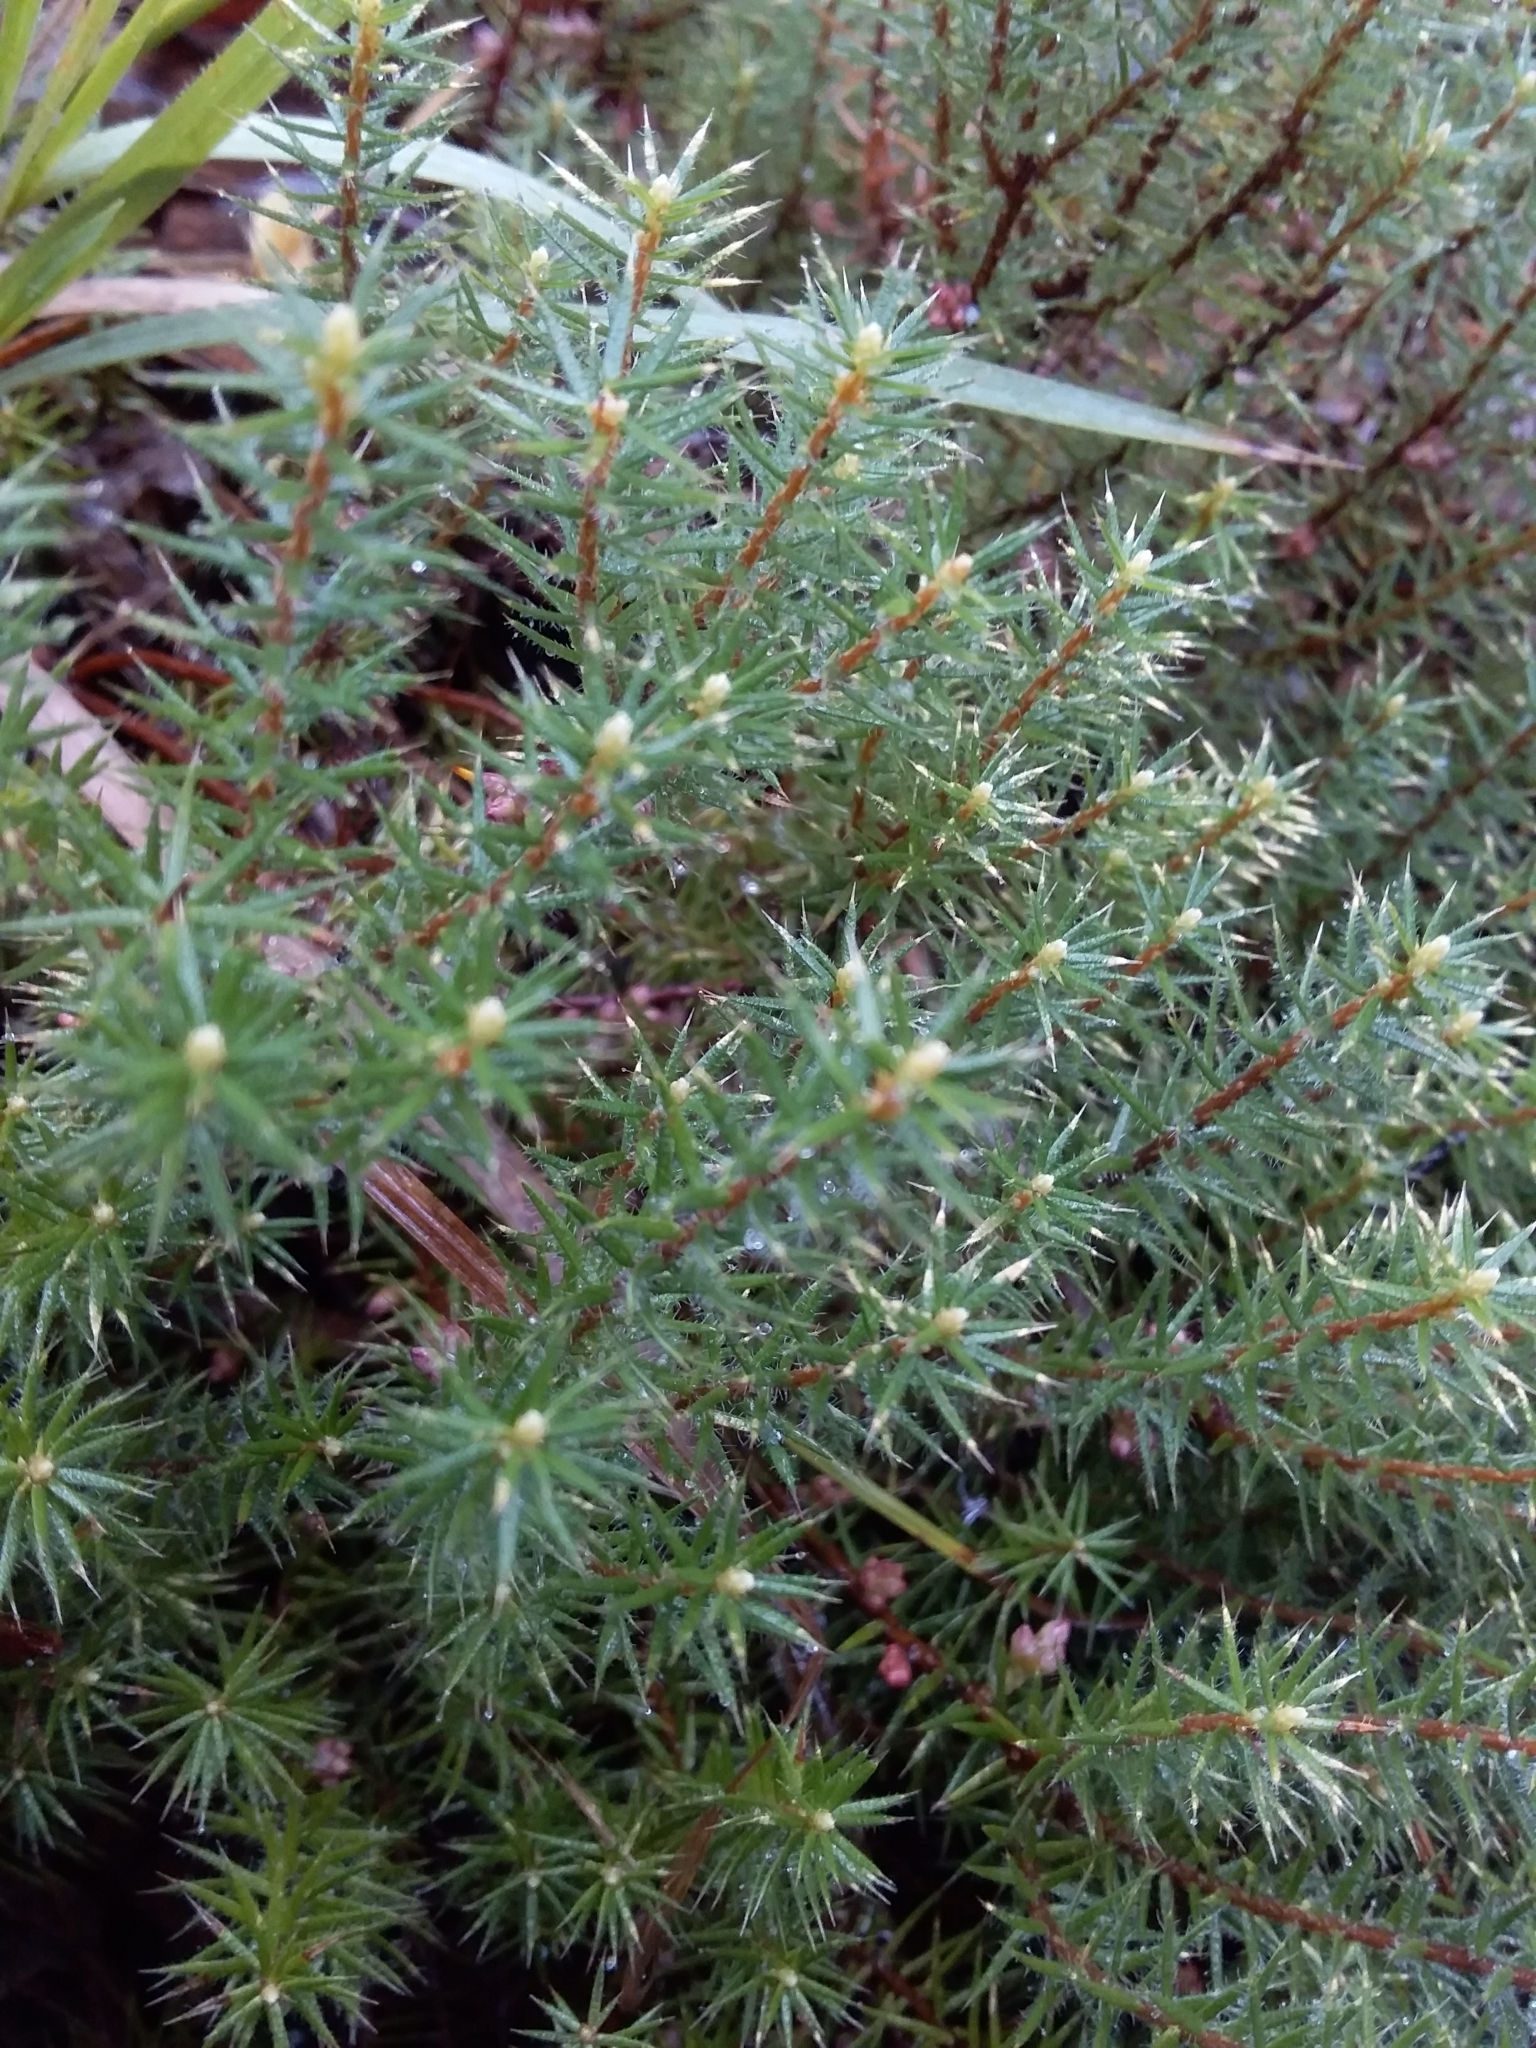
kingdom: Plantae
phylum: Tracheophyta
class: Magnoliopsida
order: Ericales
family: Ericaceae
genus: Acrotriche
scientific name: Acrotriche serrulata
